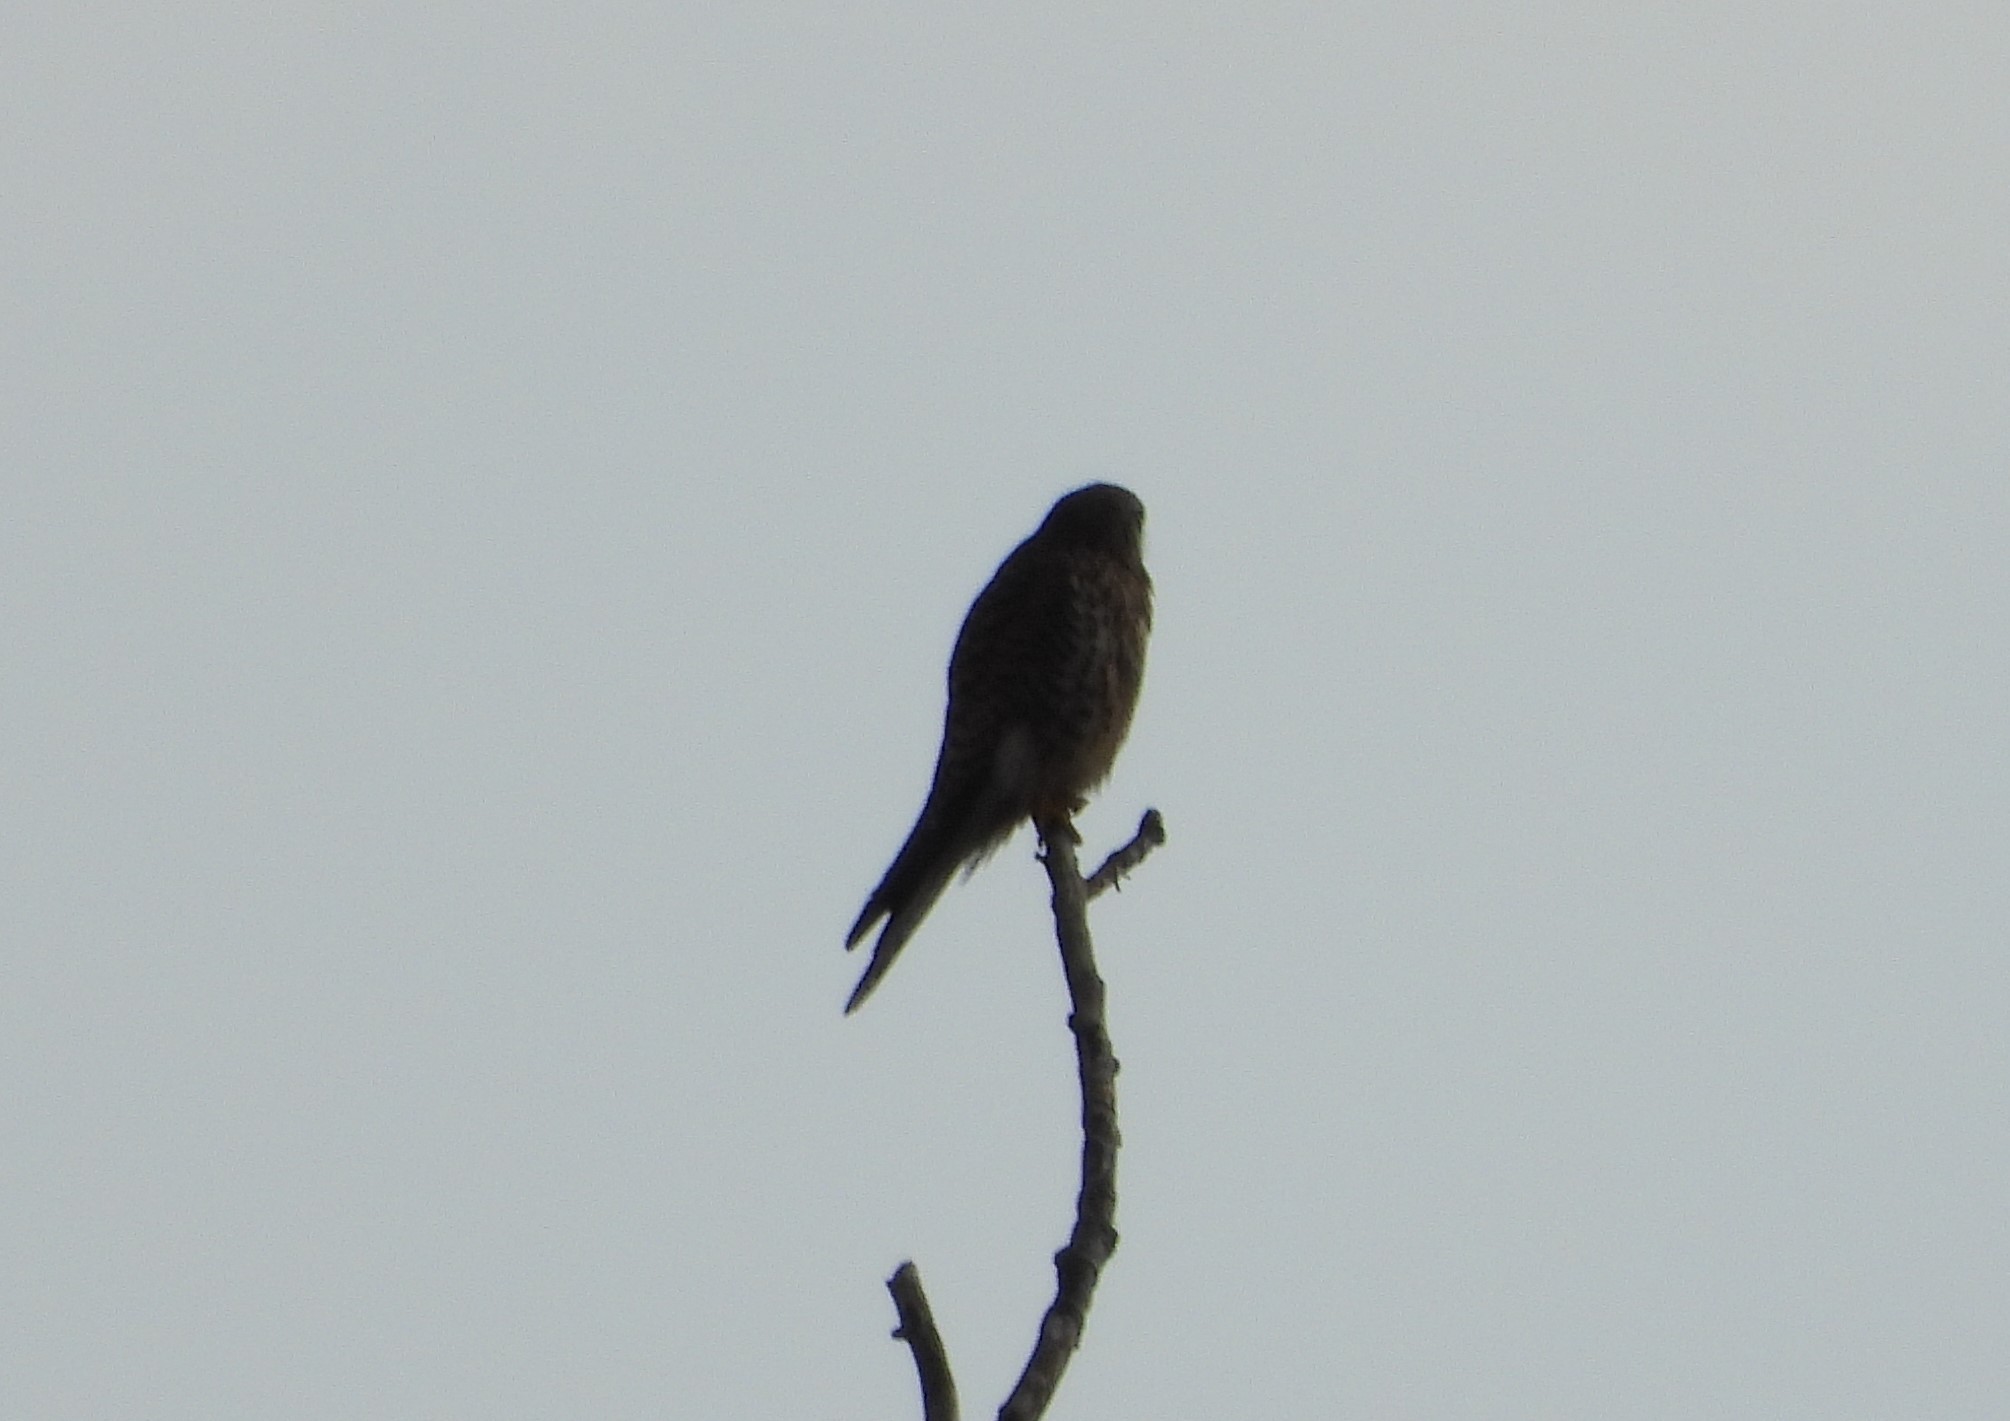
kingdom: Animalia
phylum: Chordata
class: Aves
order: Falconiformes
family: Falconidae
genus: Falco
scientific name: Falco tinnunculus
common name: Common kestrel
